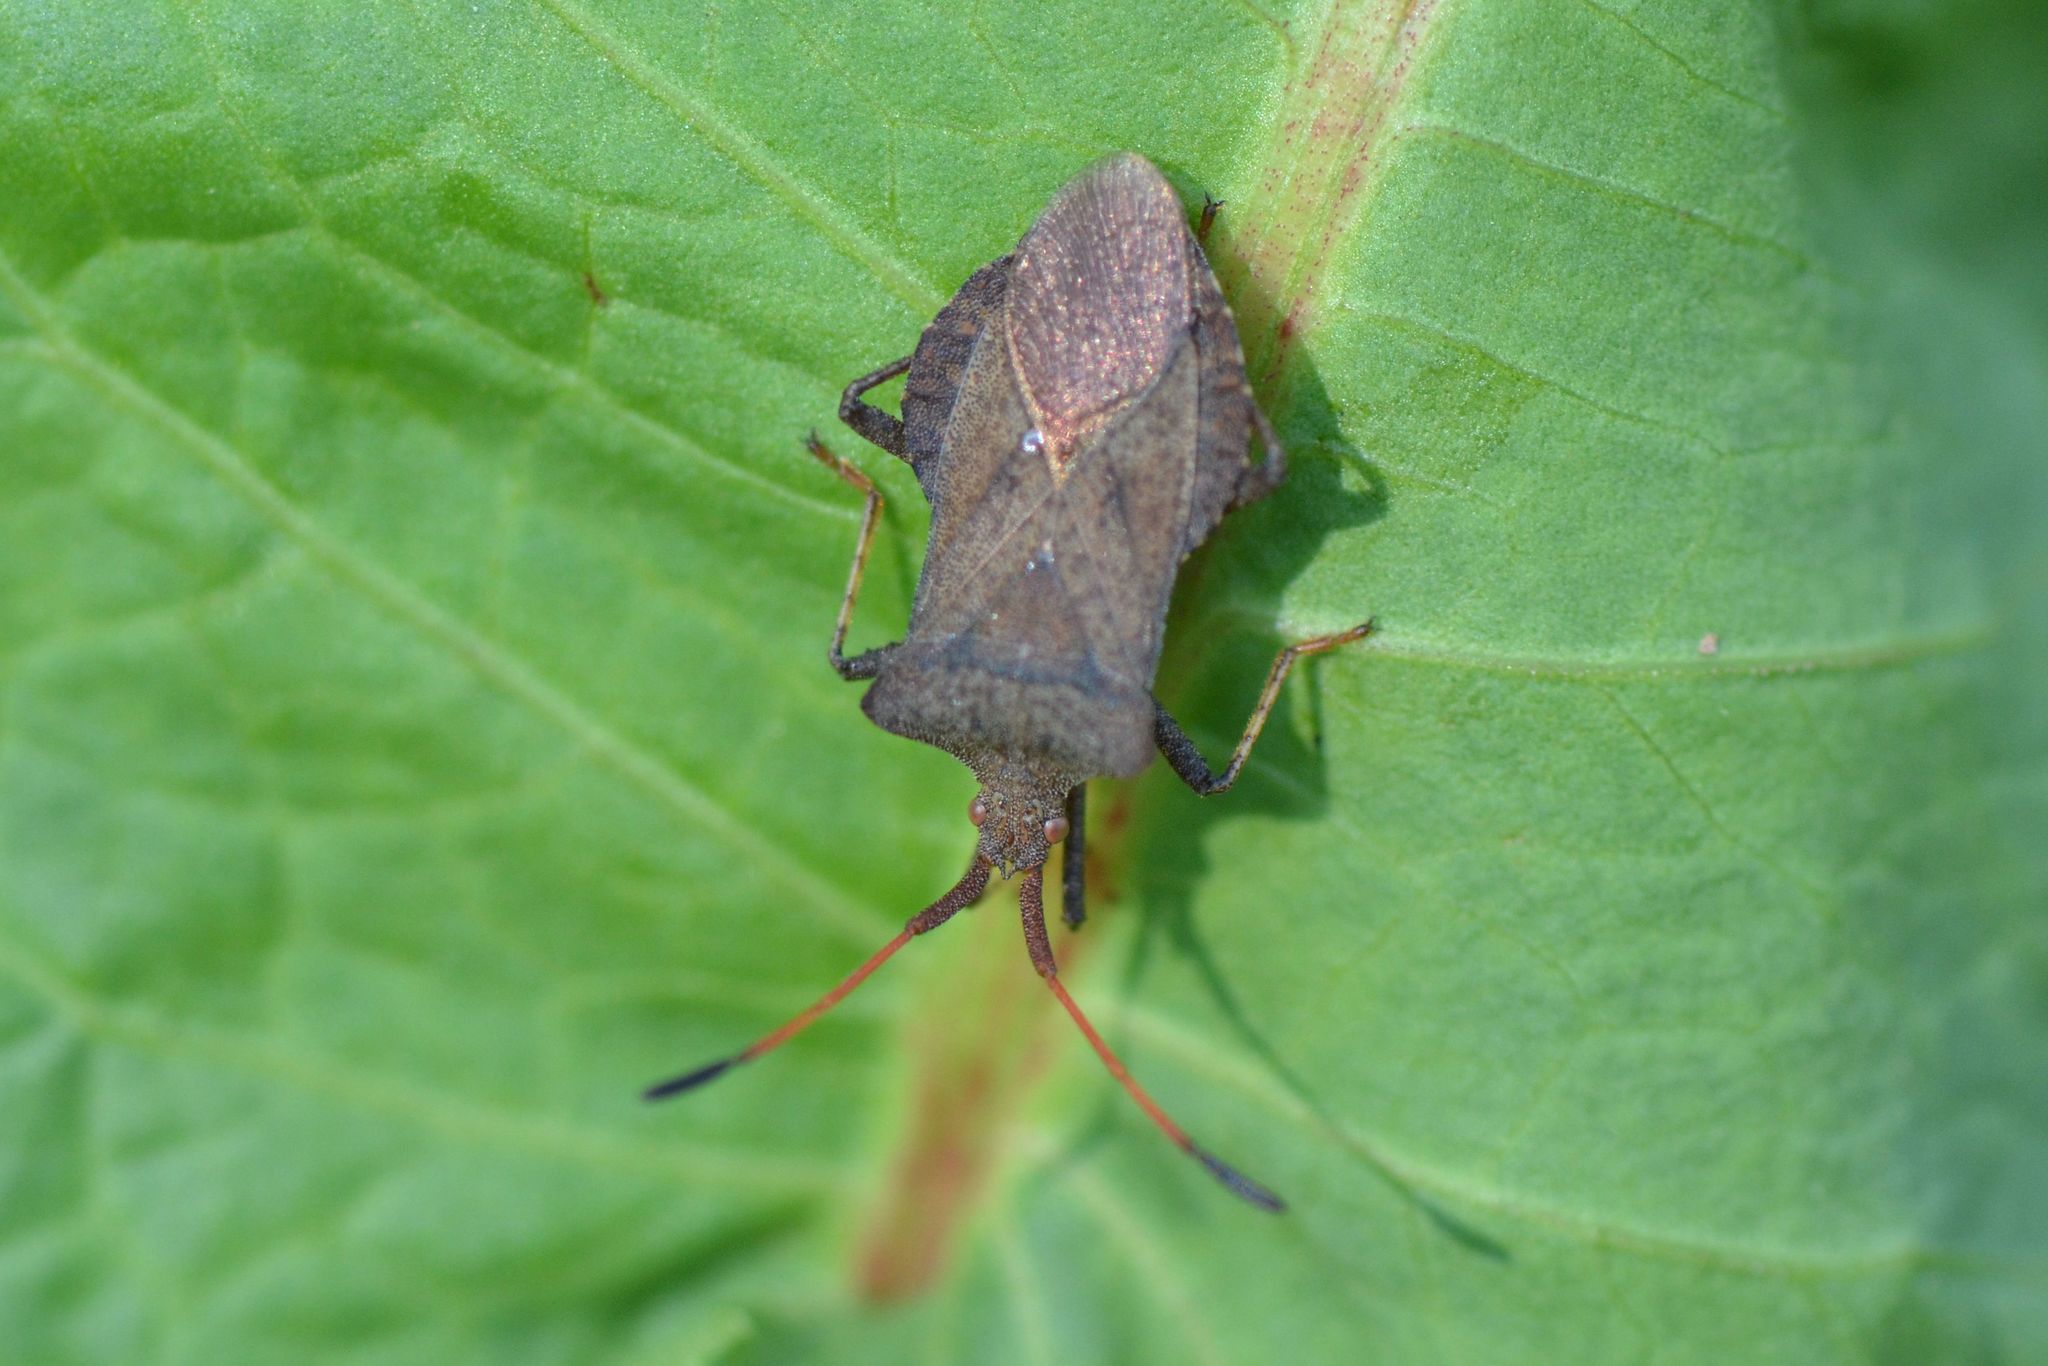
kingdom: Animalia
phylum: Arthropoda
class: Insecta
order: Hemiptera
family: Coreidae
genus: Coreus
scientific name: Coreus marginatus
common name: Dock bug
